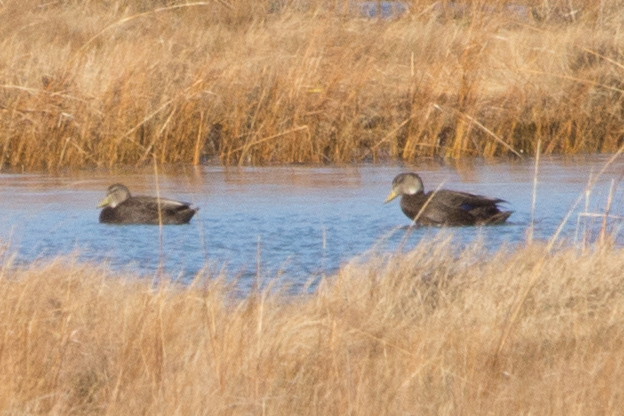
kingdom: Animalia
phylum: Chordata
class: Aves
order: Anseriformes
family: Anatidae
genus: Anas
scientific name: Anas rubripes
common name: American black duck
